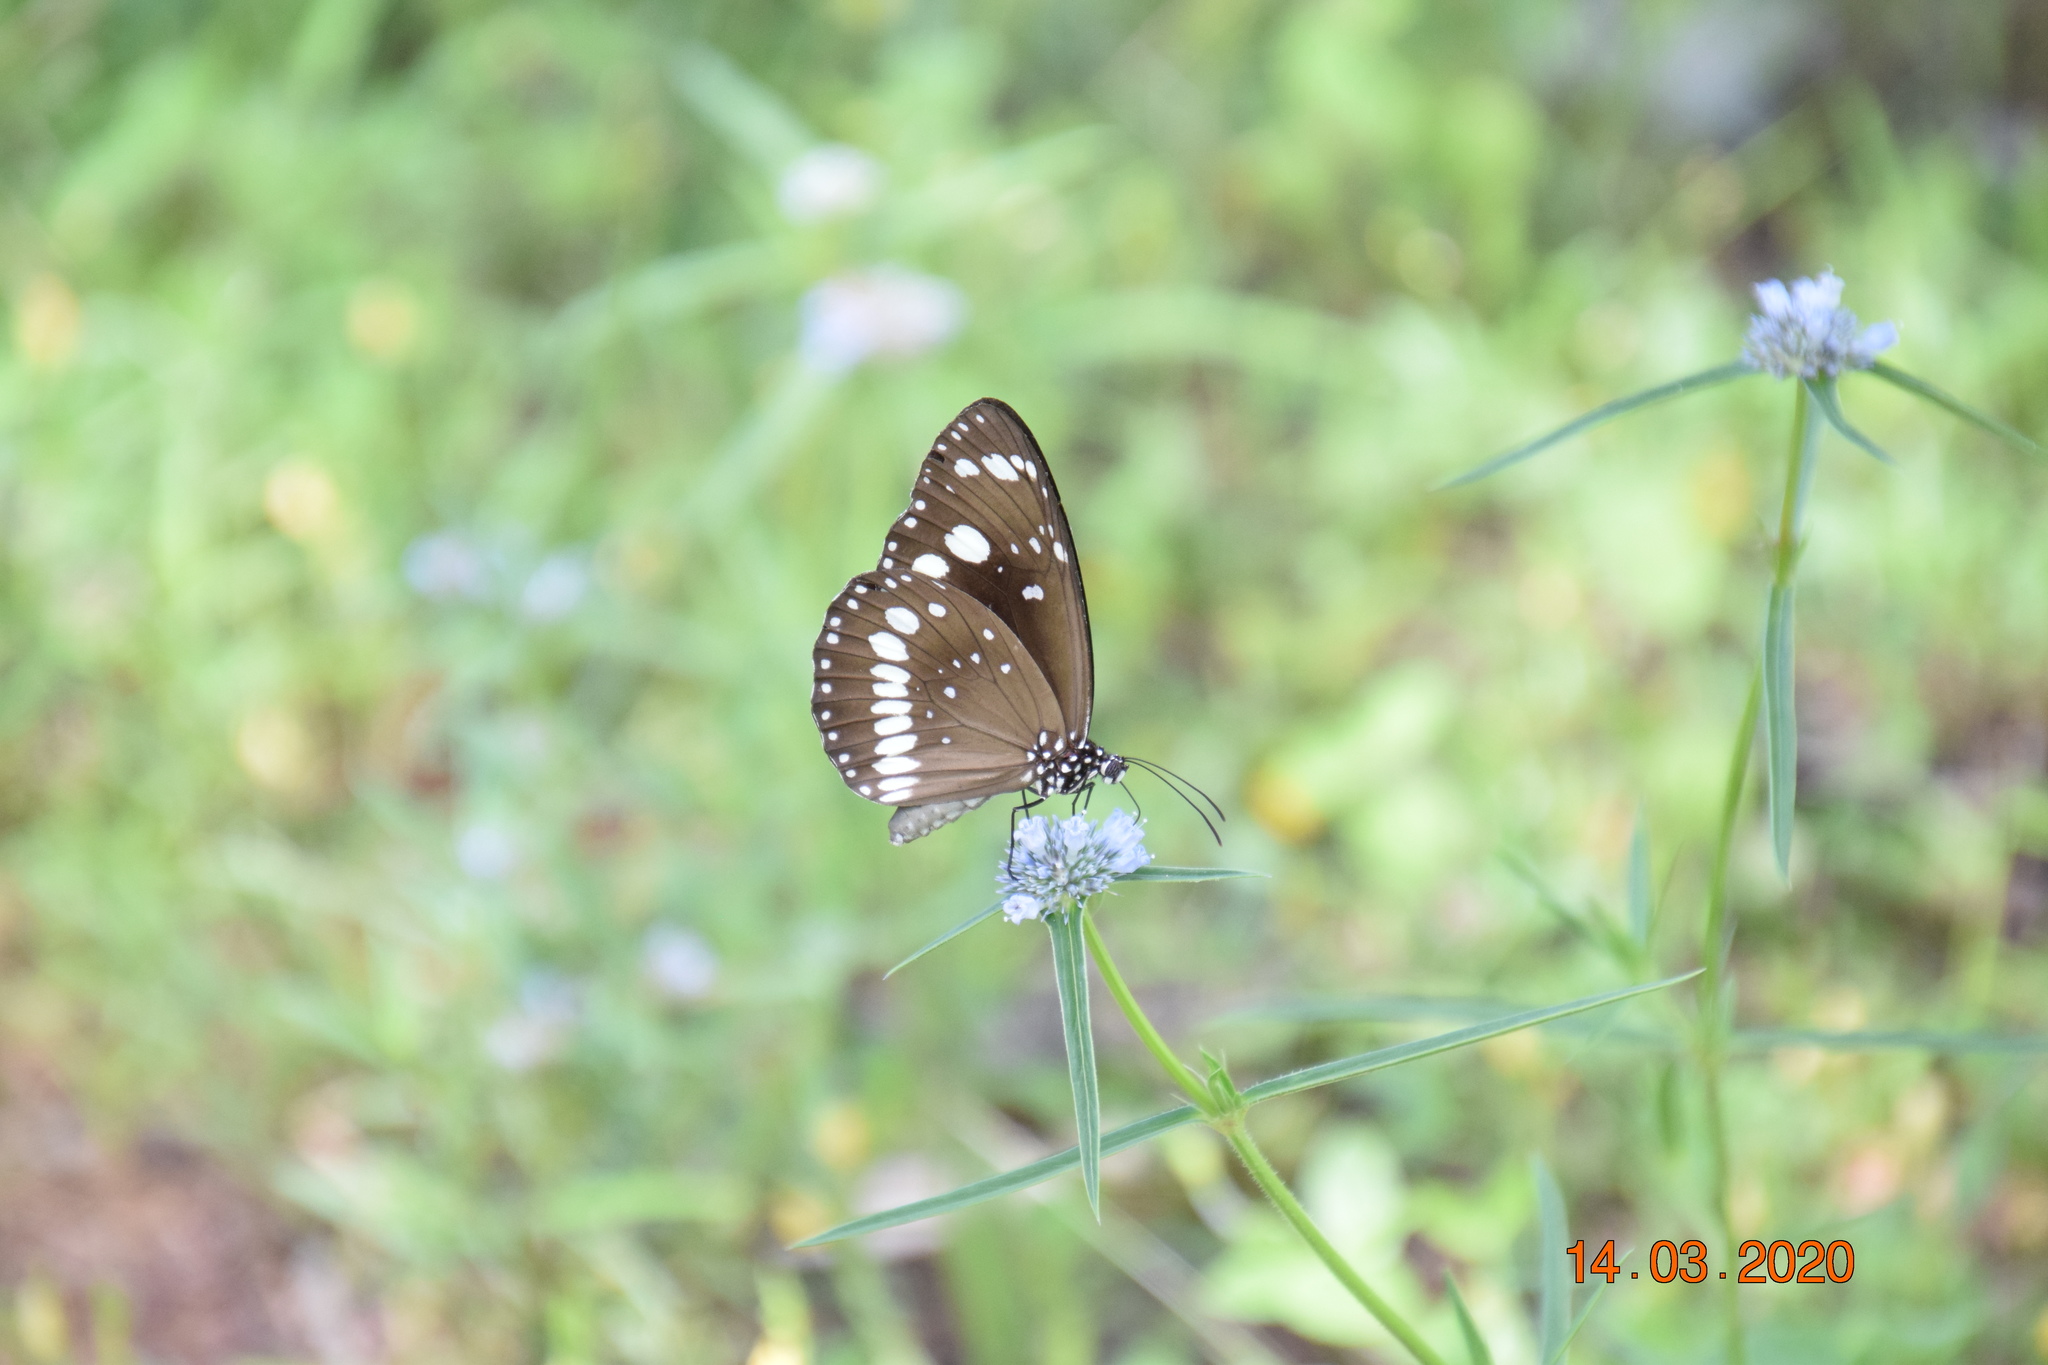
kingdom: Animalia
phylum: Arthropoda
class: Insecta
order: Lepidoptera
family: Nymphalidae
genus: Euploea
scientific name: Euploea core
